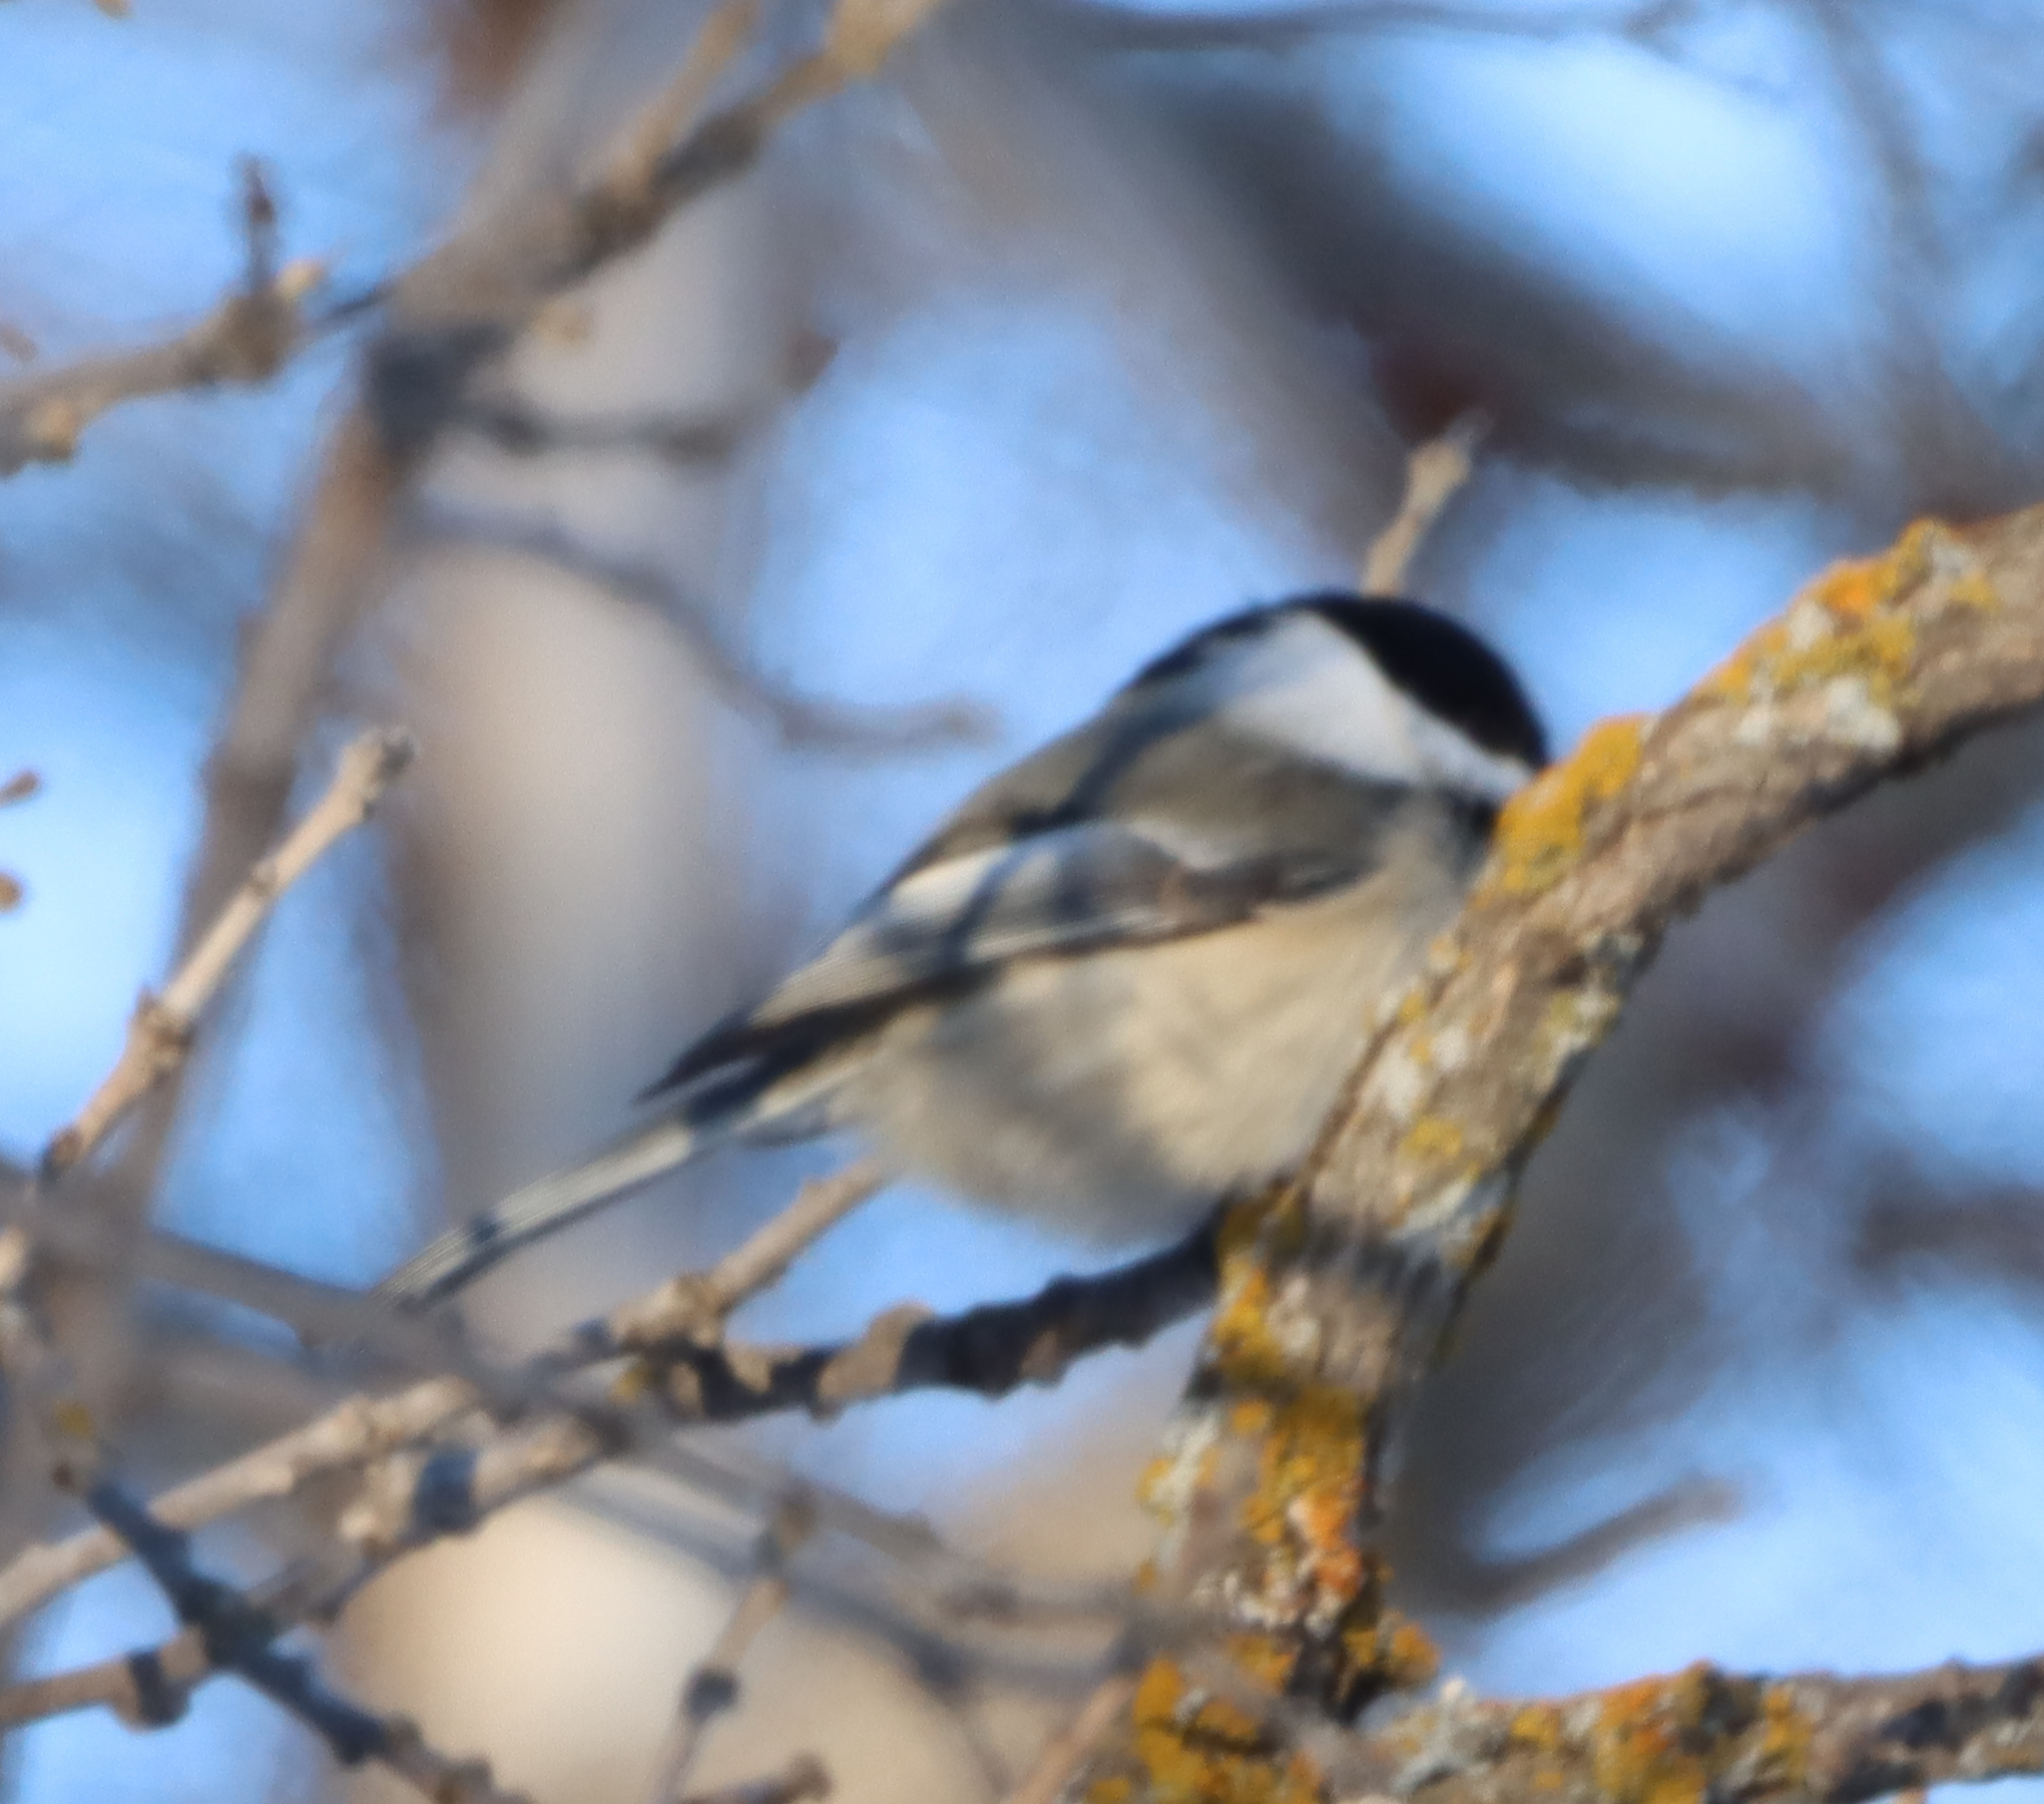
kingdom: Animalia
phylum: Chordata
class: Aves
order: Passeriformes
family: Paridae
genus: Poecile
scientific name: Poecile atricapillus
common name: Black-capped chickadee
